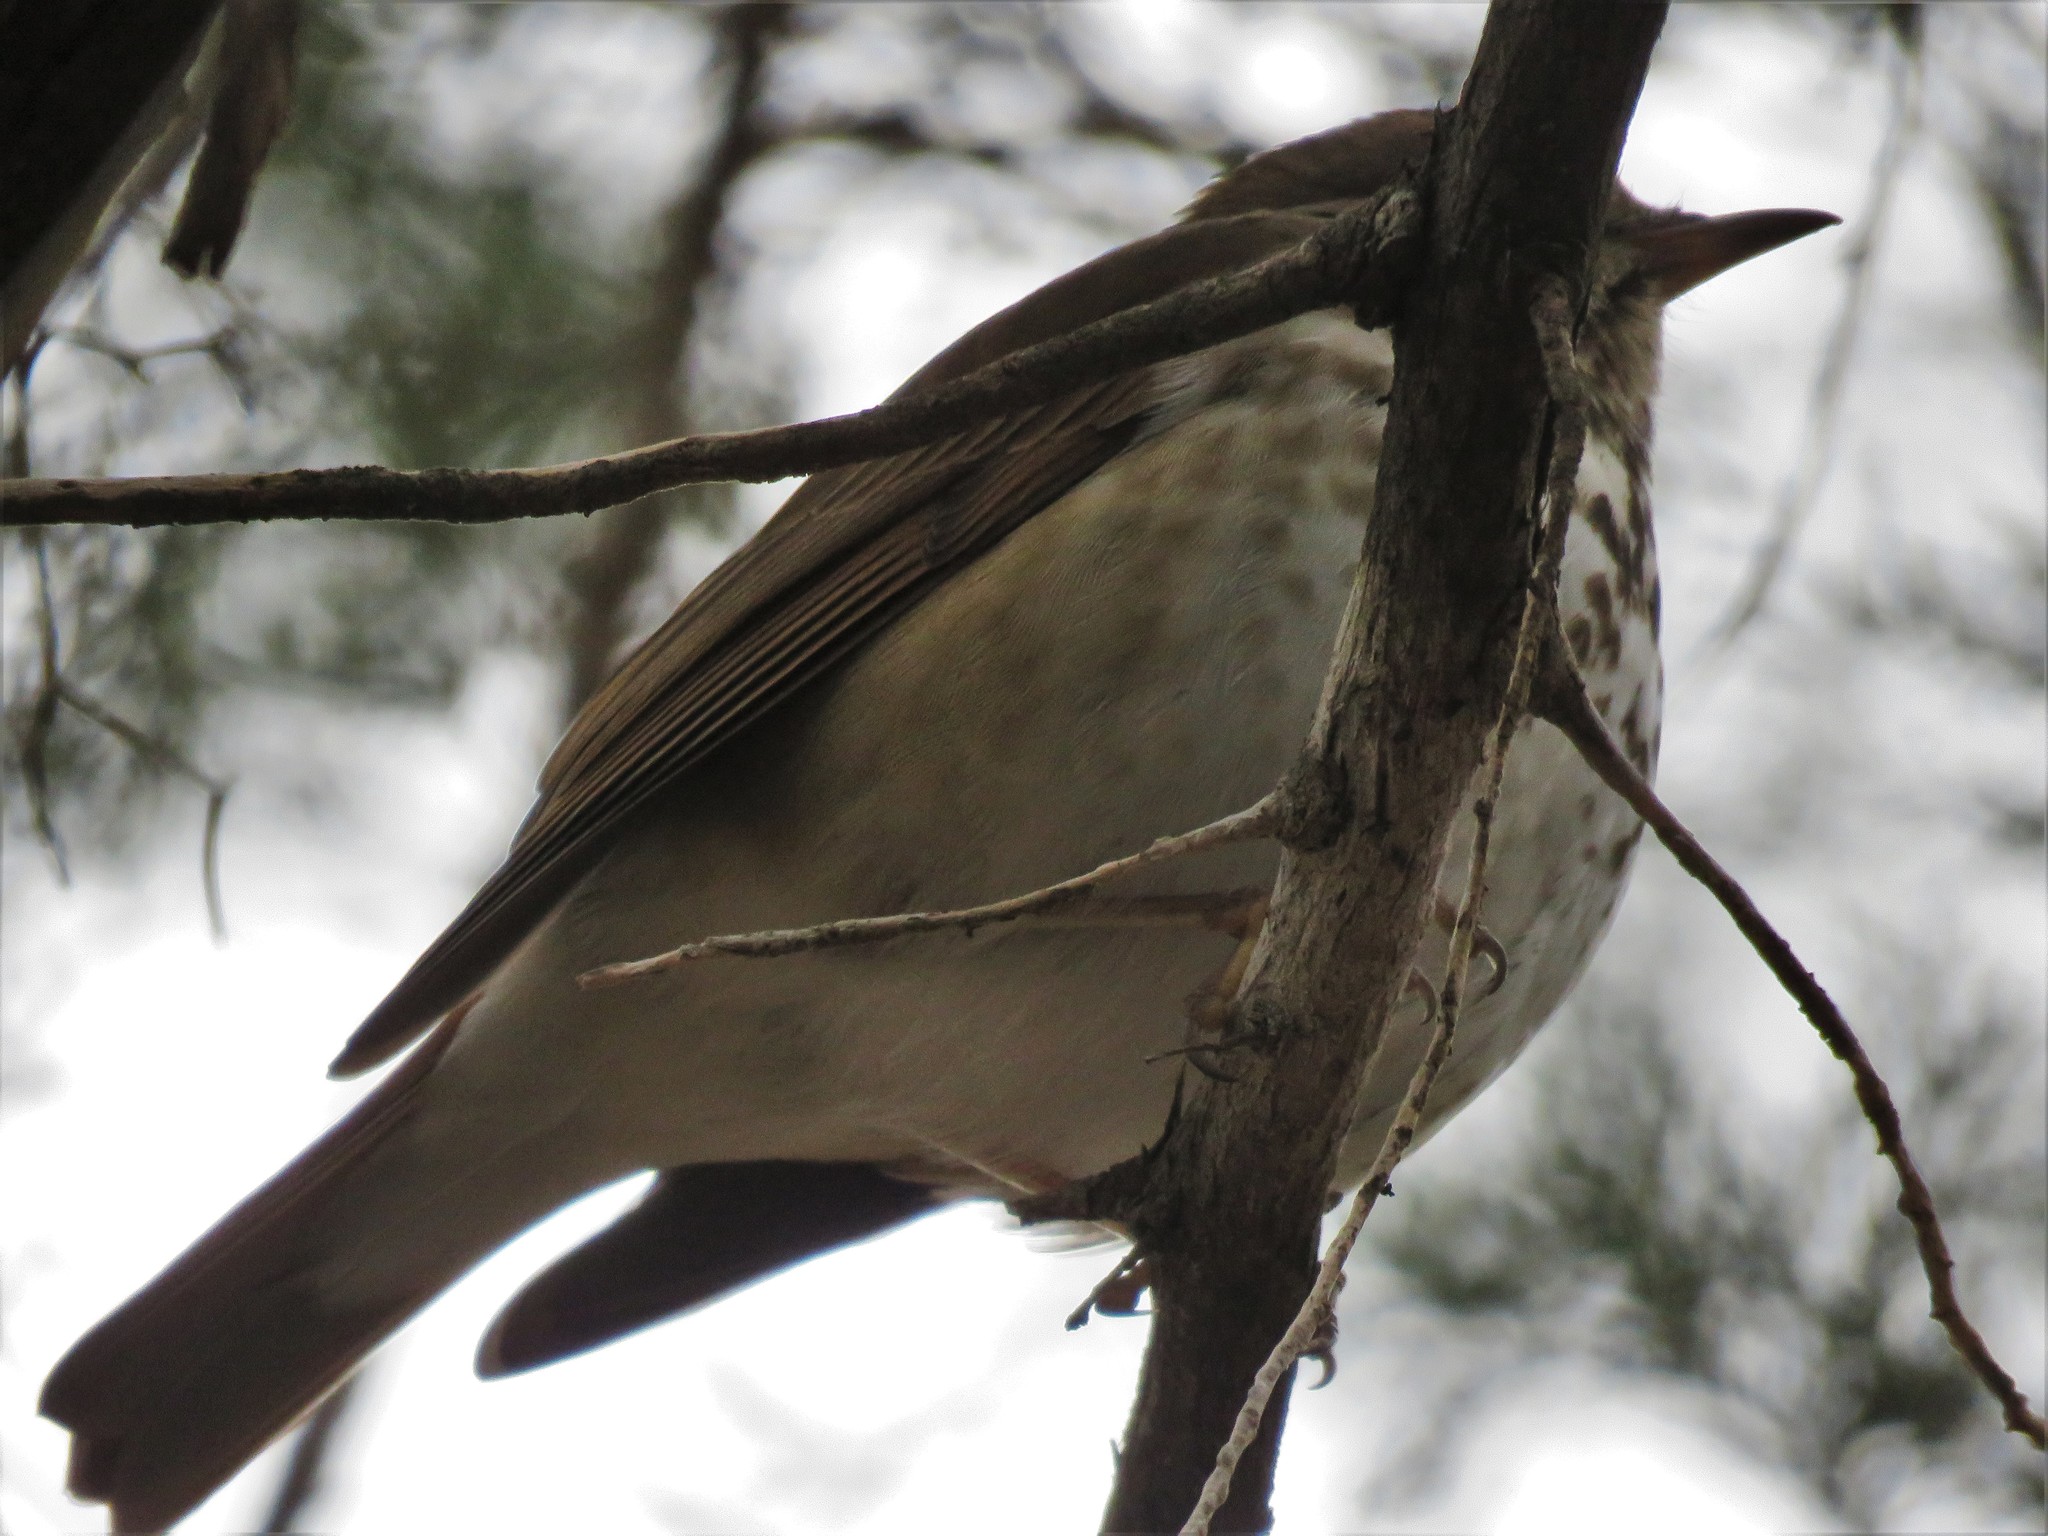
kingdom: Animalia
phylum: Chordata
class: Aves
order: Passeriformes
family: Turdidae
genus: Catharus
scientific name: Catharus guttatus
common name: Hermit thrush
